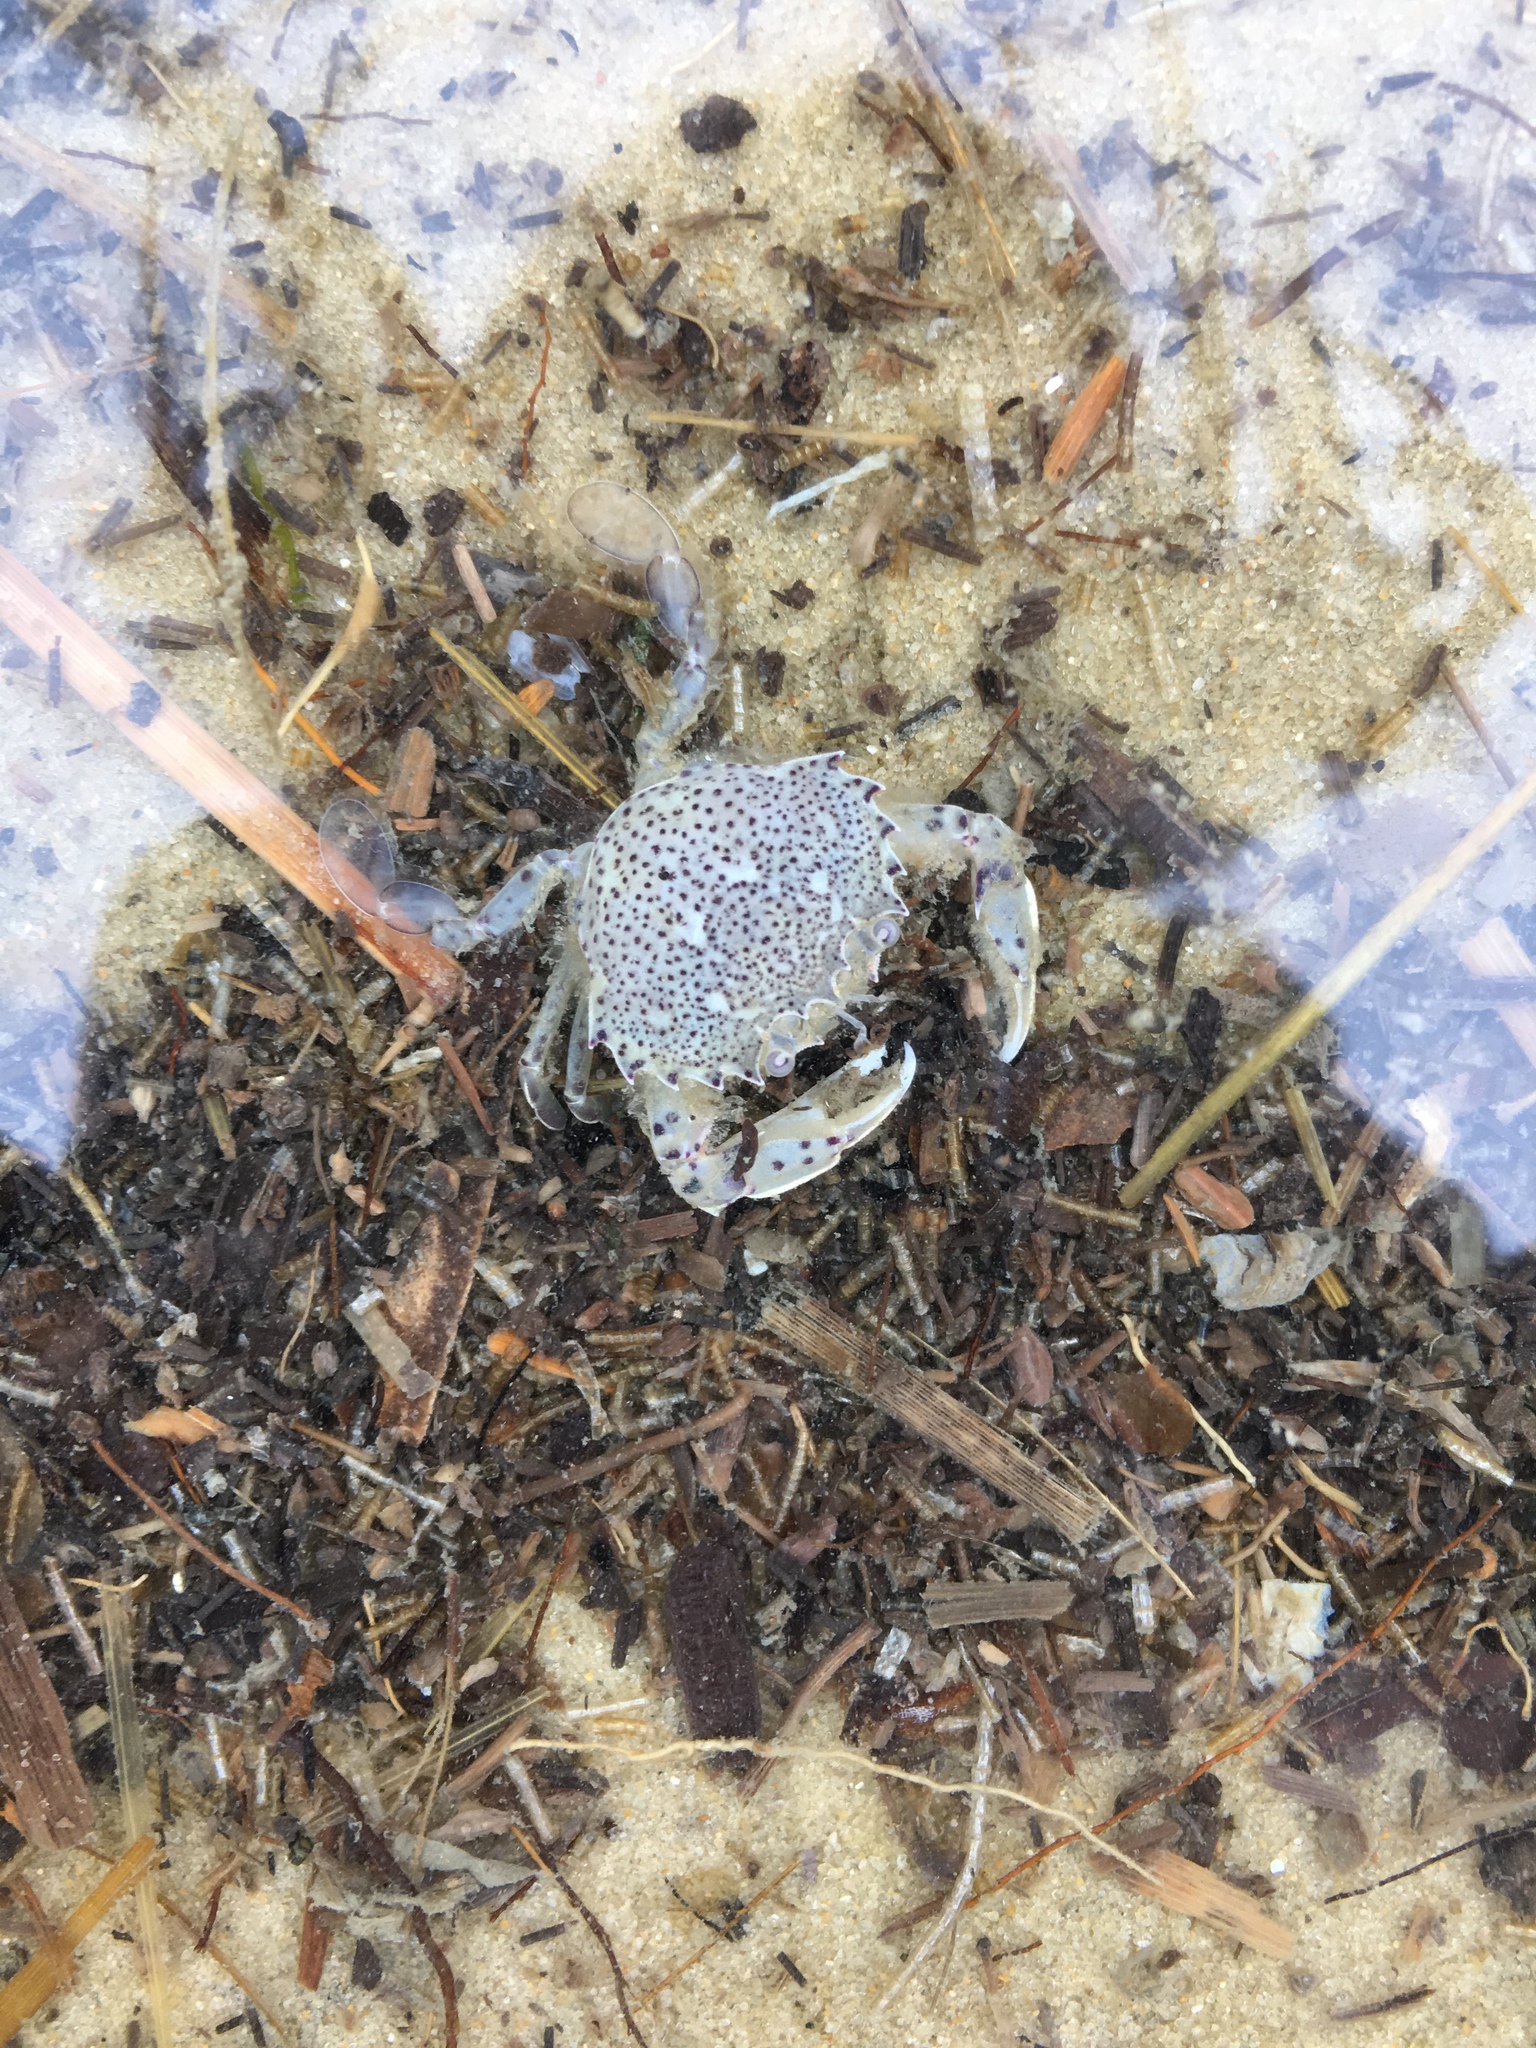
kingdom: Animalia
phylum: Arthropoda
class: Malacostraca
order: Decapoda
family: Ovalipidae
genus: Ovalipes
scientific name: Ovalipes ocellatus
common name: Lady crab
